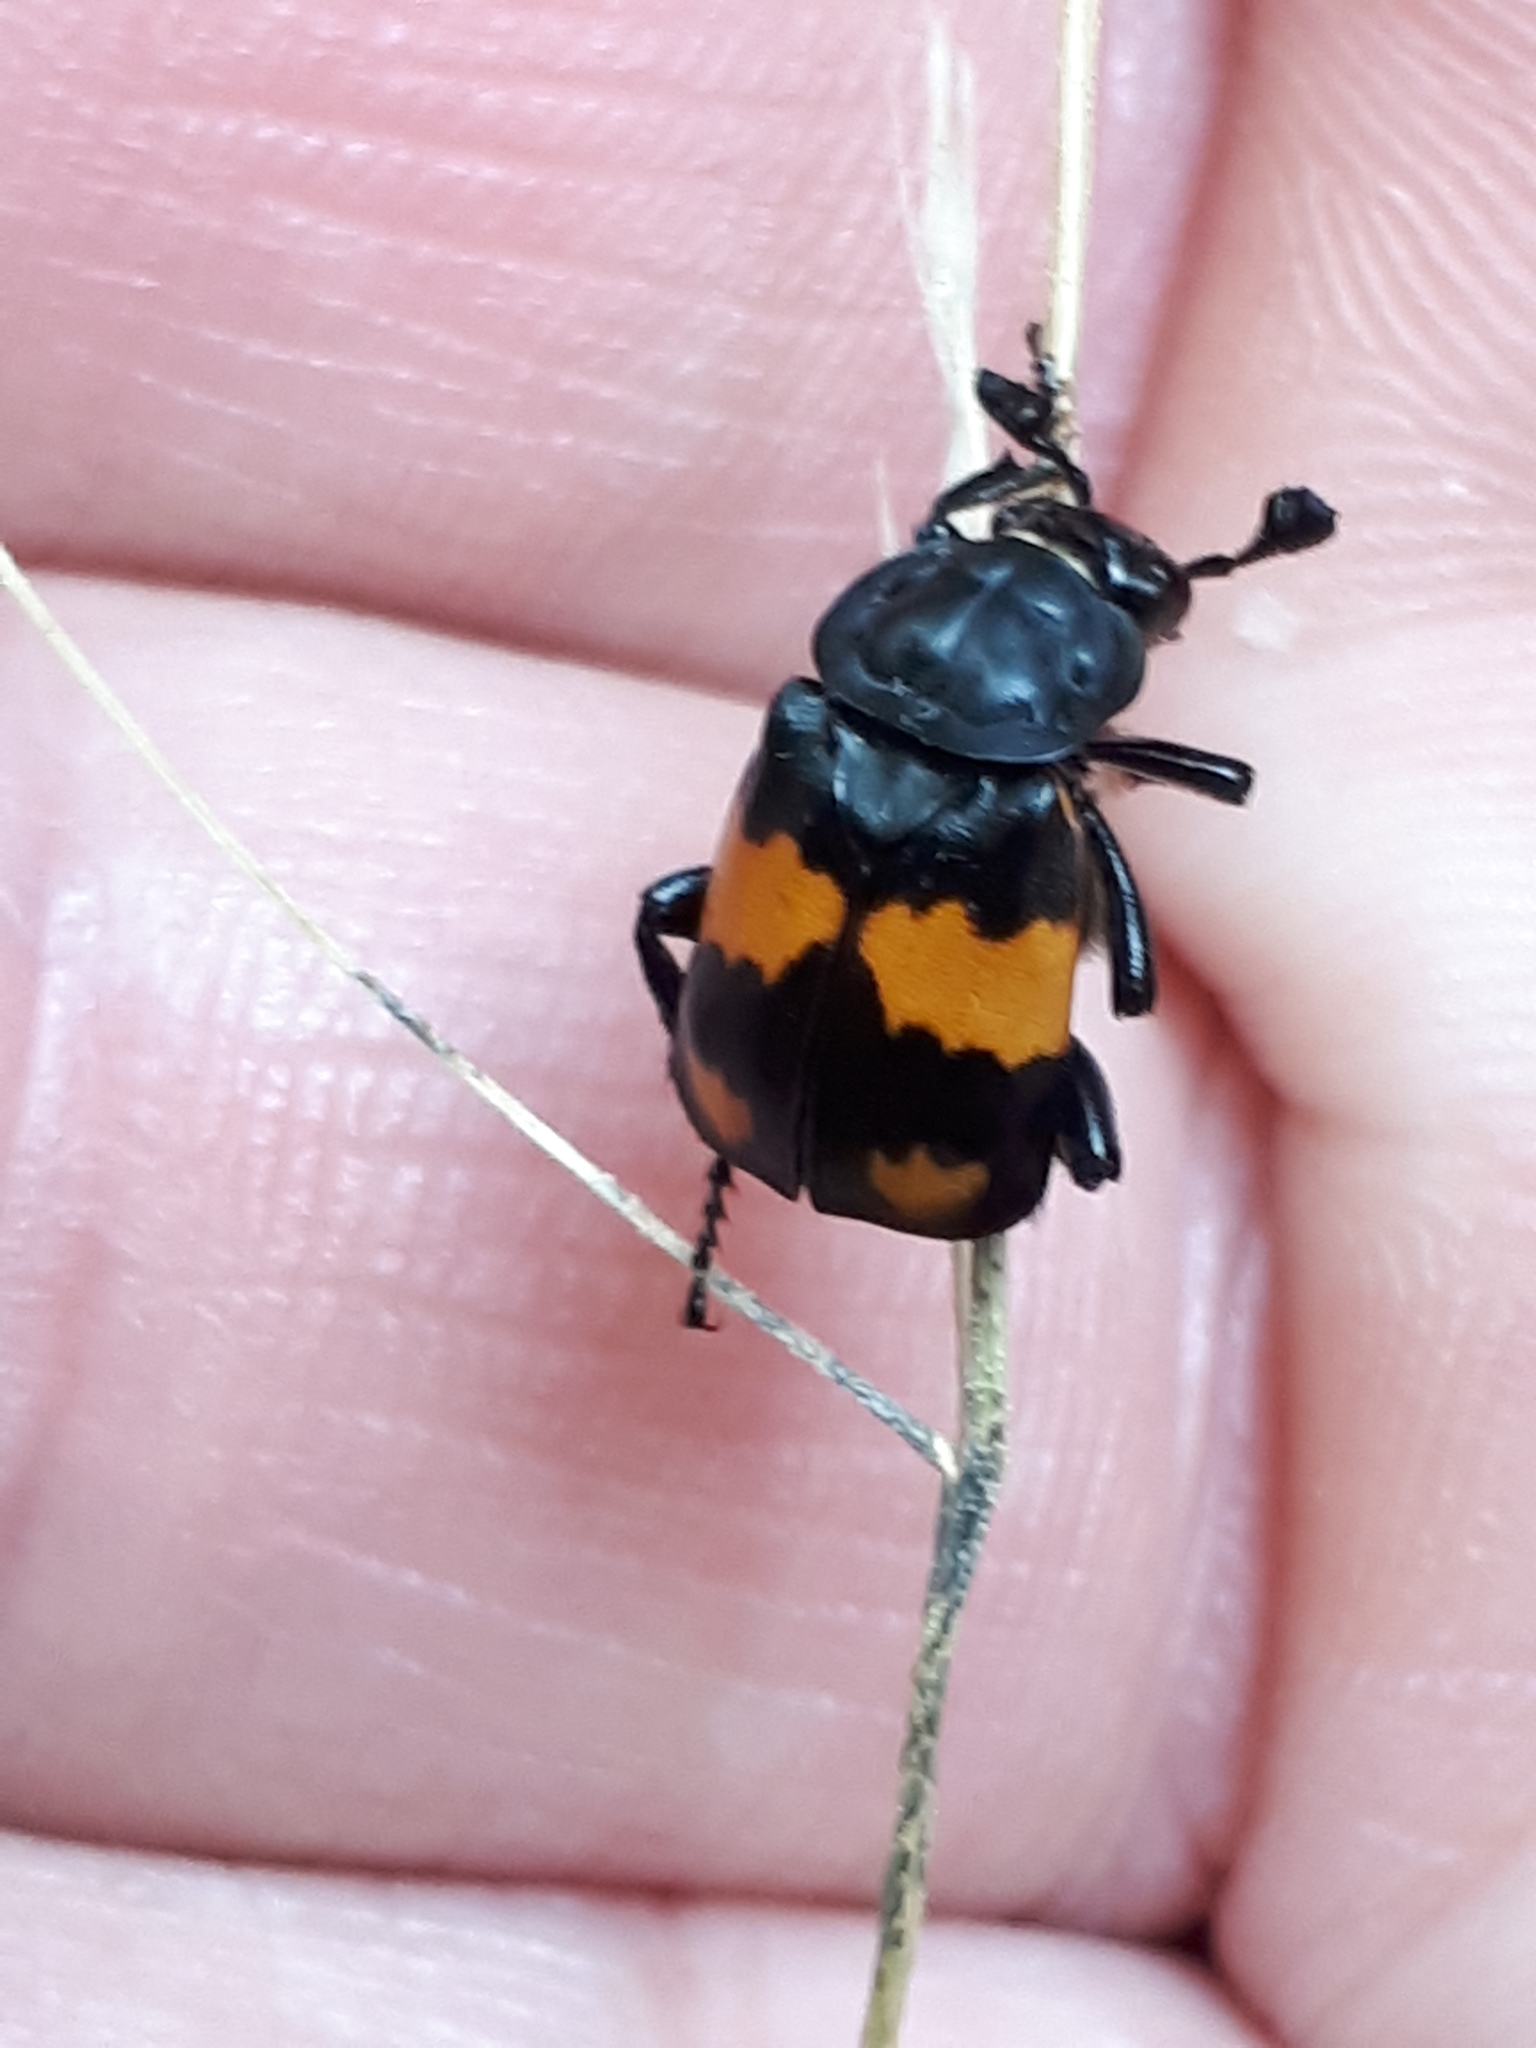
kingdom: Animalia
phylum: Arthropoda
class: Insecta
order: Coleoptera
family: Staphylinidae
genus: Nicrophorus
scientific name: Nicrophorus vespilloides
